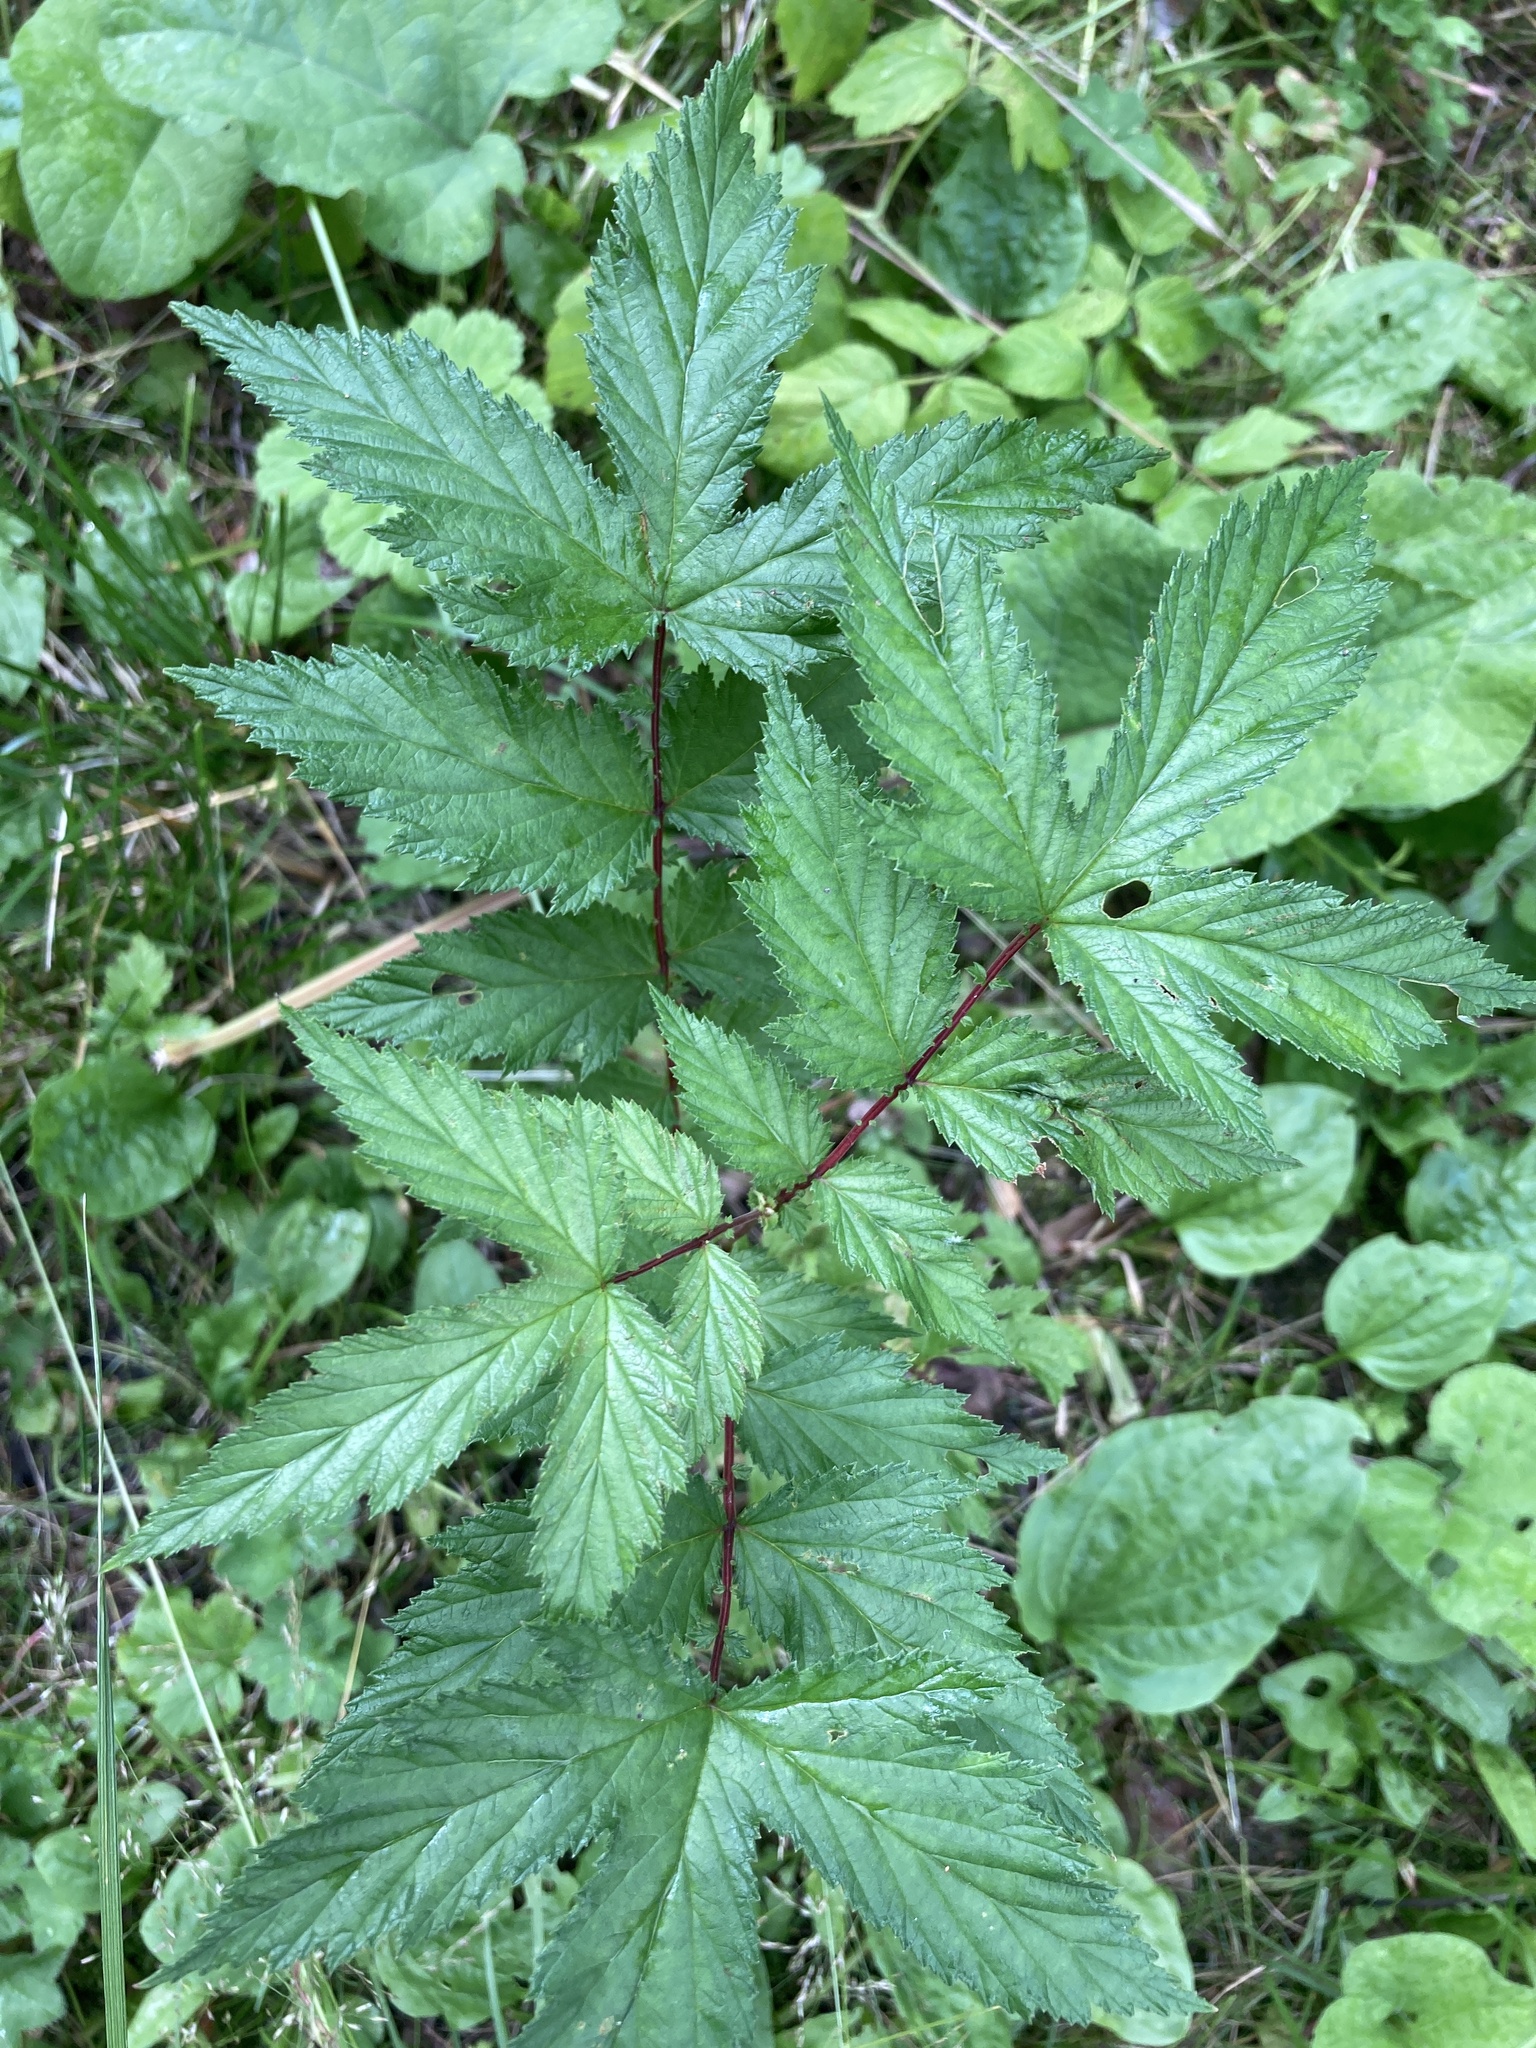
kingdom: Plantae
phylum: Tracheophyta
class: Magnoliopsida
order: Rosales
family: Rosaceae
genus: Filipendula
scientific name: Filipendula ulmaria
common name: Meadowsweet
